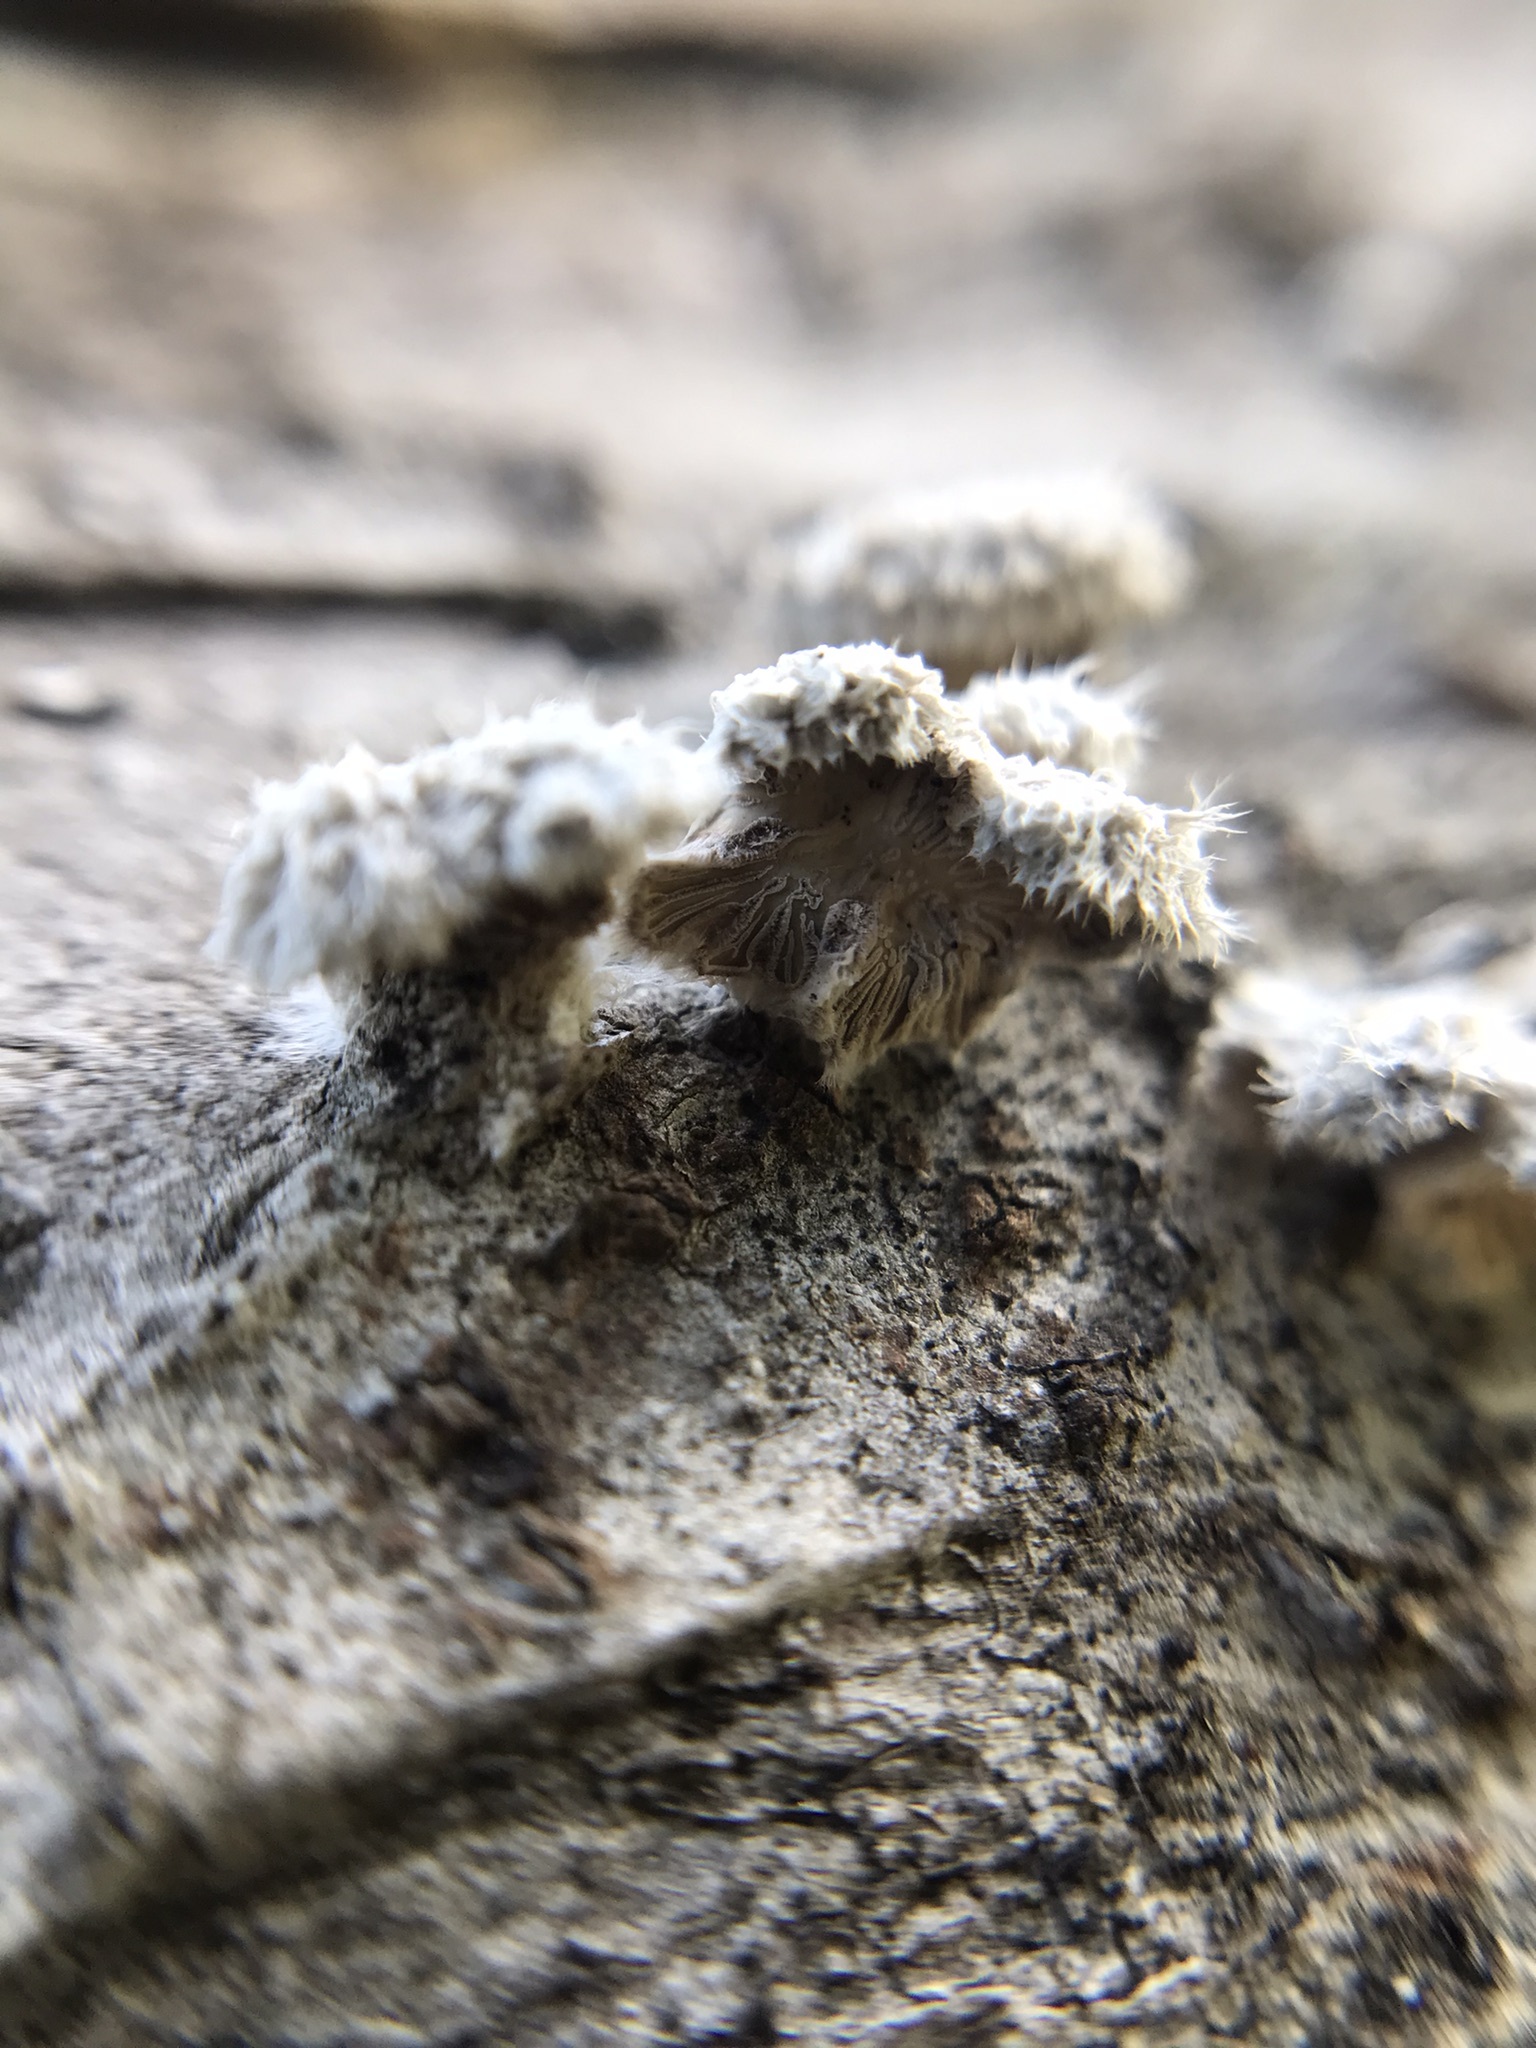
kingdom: Fungi
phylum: Basidiomycota
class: Agaricomycetes
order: Agaricales
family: Schizophyllaceae
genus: Schizophyllum
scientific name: Schizophyllum commune
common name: Common porecrust
